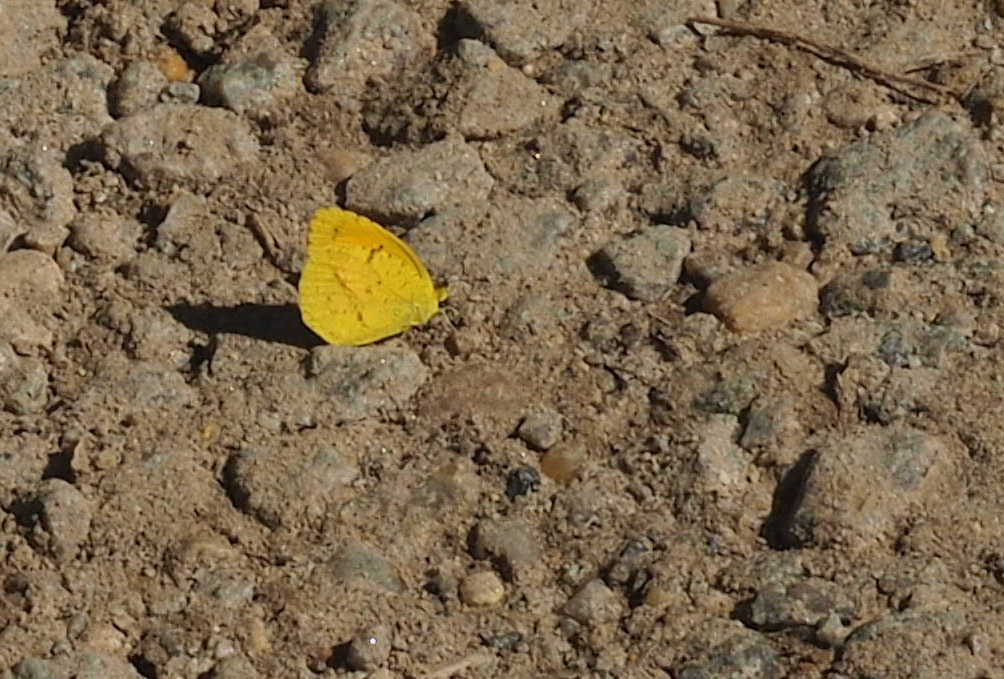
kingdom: Animalia
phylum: Arthropoda
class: Insecta
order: Lepidoptera
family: Pieridae
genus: Abaeis
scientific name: Abaeis nicippe
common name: Sleepy orange
